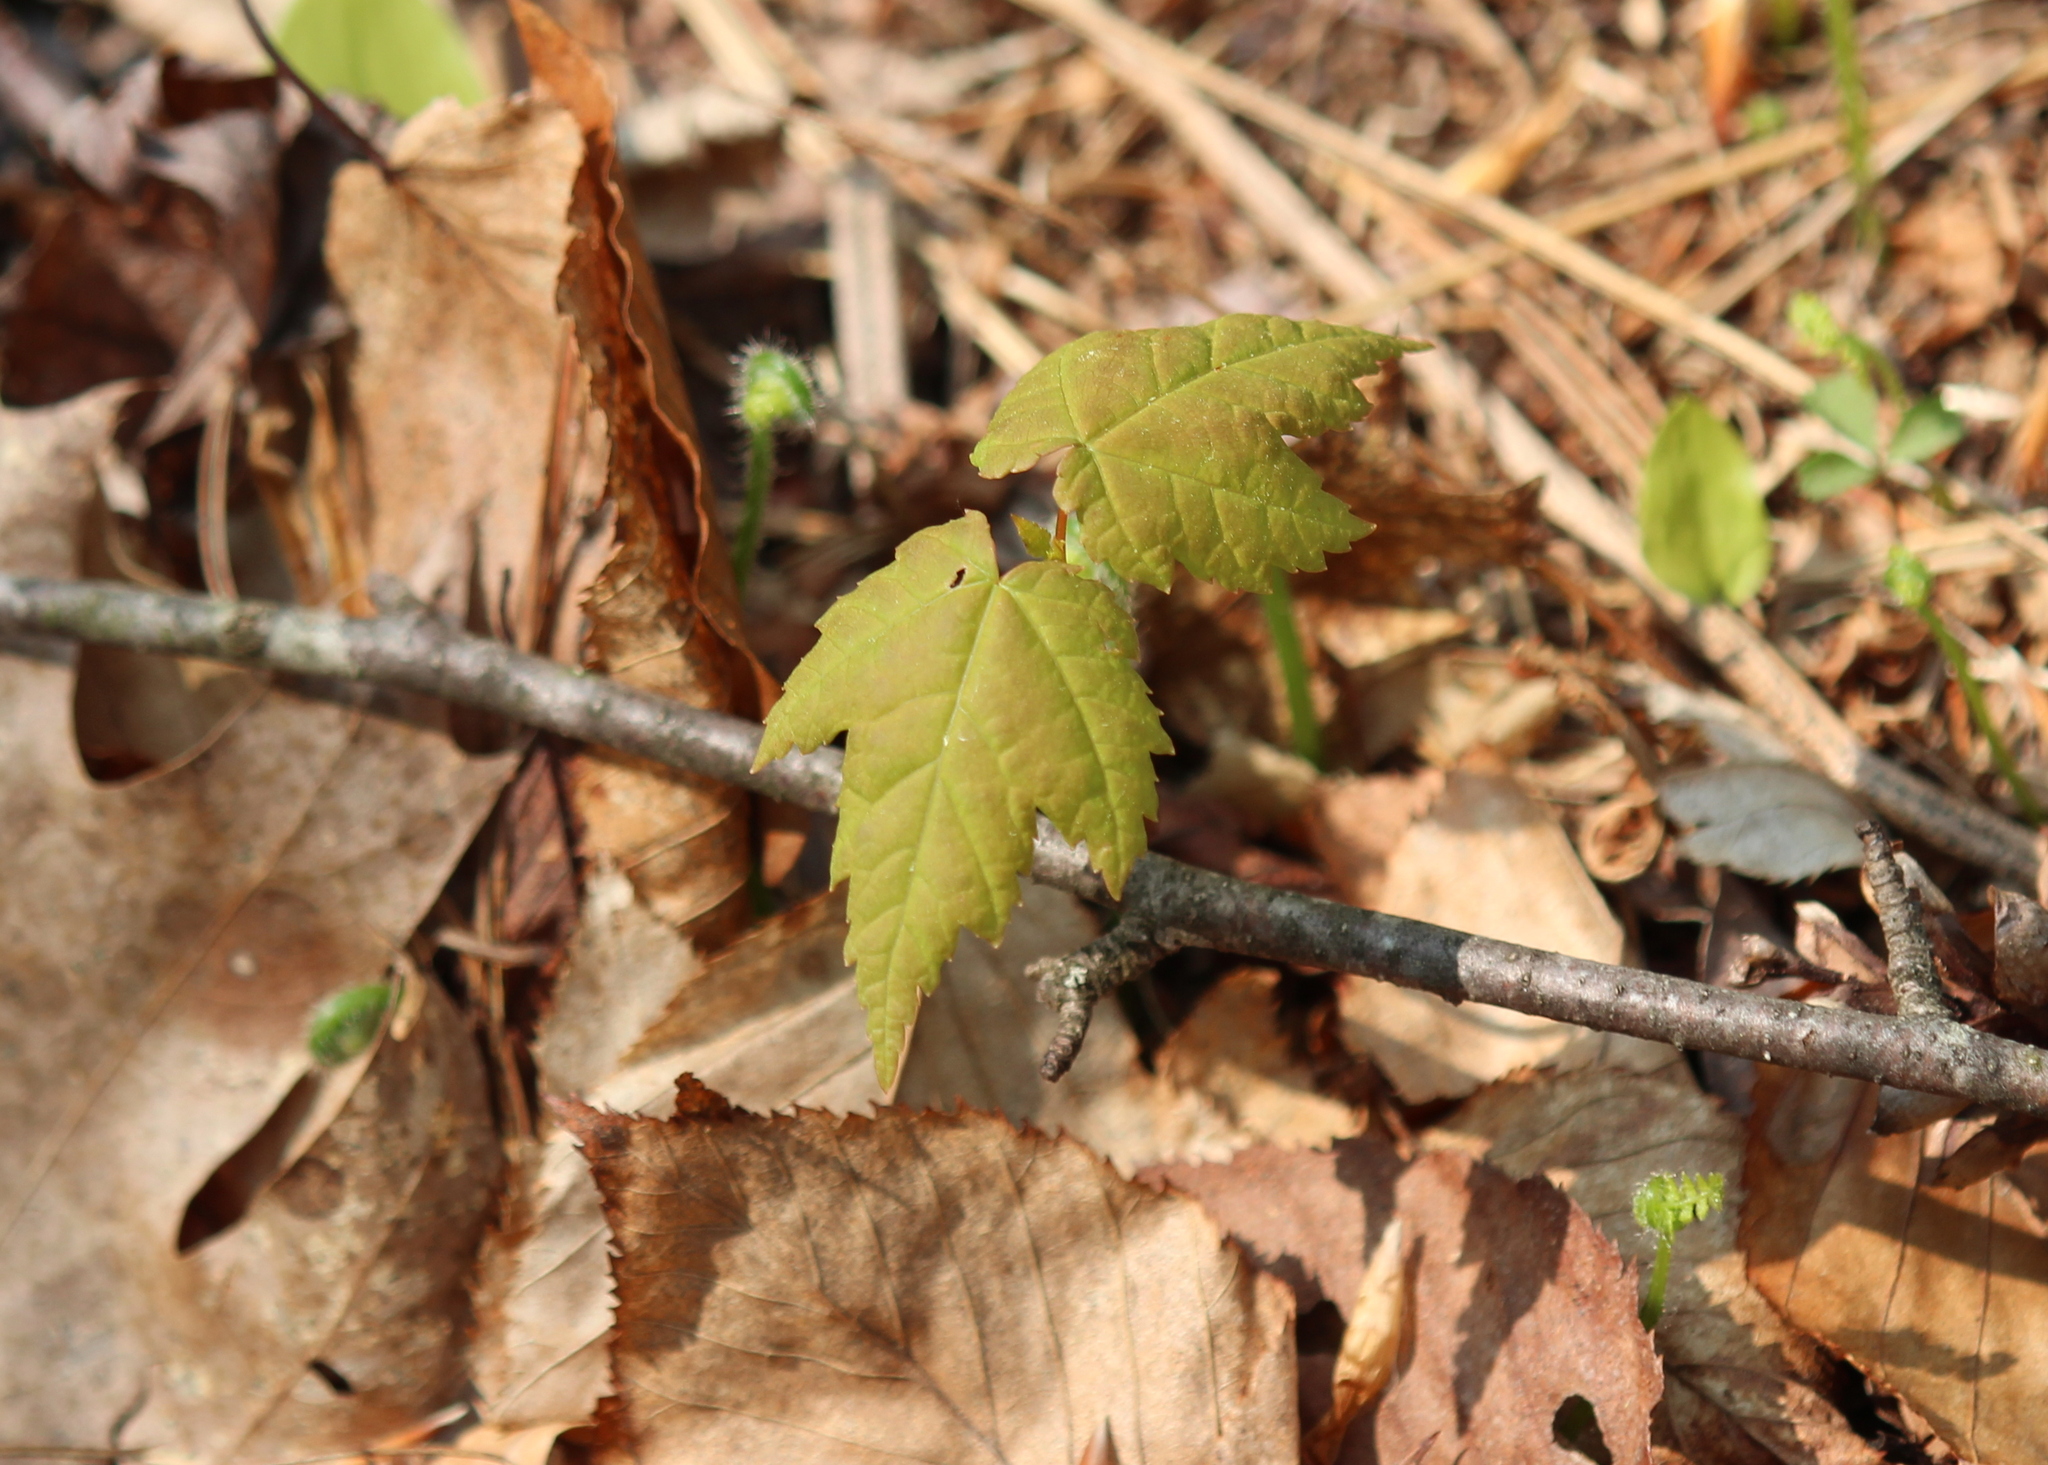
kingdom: Plantae
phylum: Tracheophyta
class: Magnoliopsida
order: Sapindales
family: Sapindaceae
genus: Acer
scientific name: Acer rubrum
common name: Red maple
